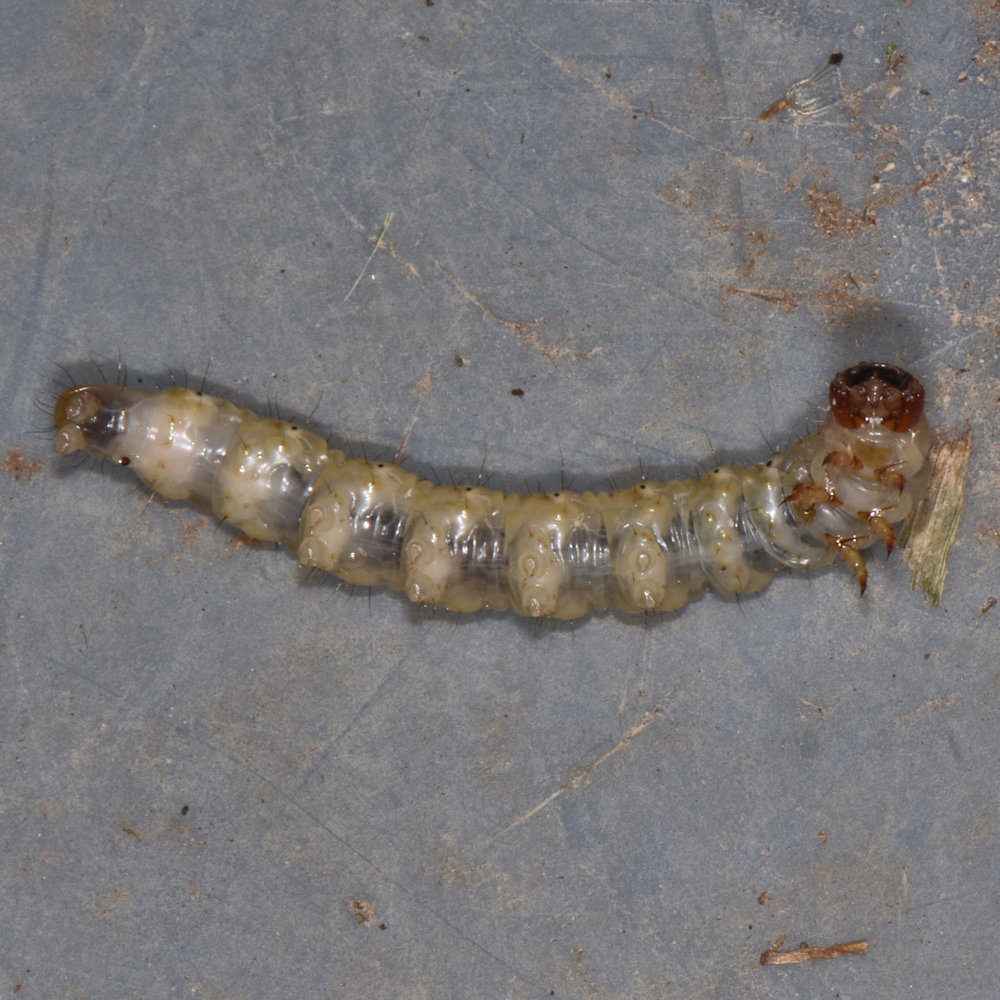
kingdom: Animalia
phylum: Arthropoda
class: Insecta
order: Lepidoptera
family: Hepialidae
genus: Korscheltellus
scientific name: Korscheltellus lupulina
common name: Common swift
